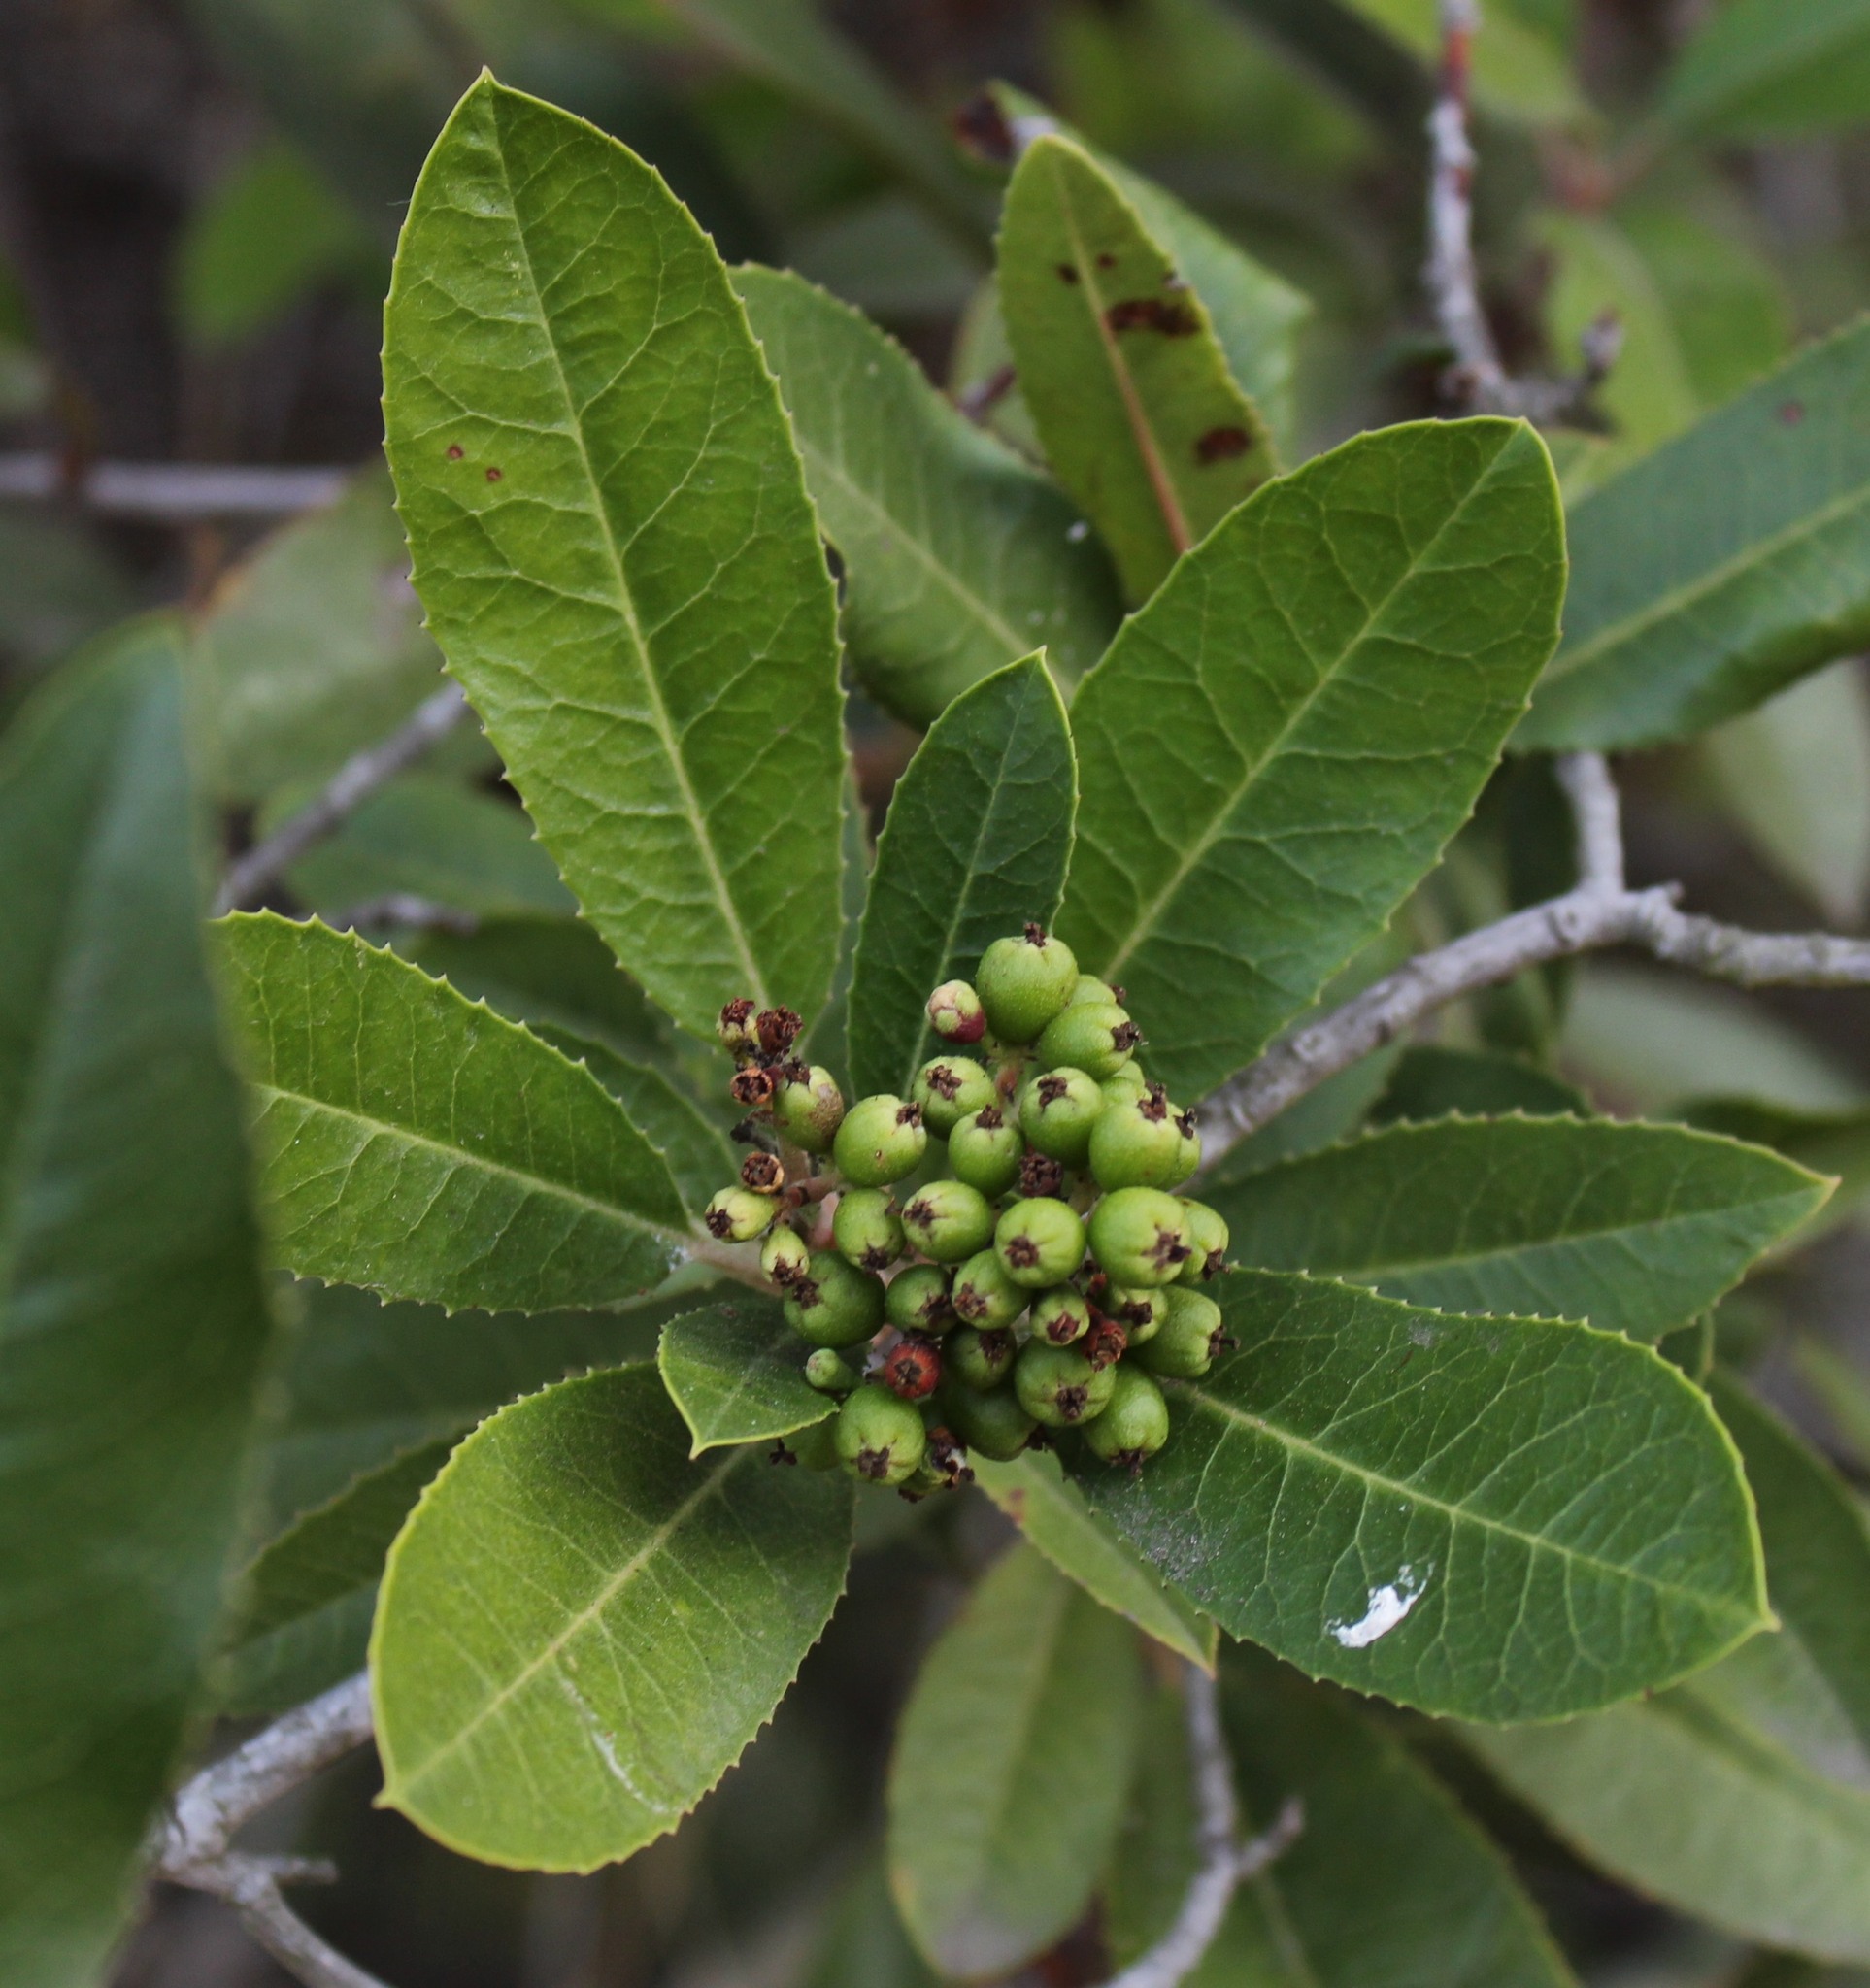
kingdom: Plantae
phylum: Tracheophyta
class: Magnoliopsida
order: Rosales
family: Rosaceae
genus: Heteromeles
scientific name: Heteromeles arbutifolia
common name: California-holly
